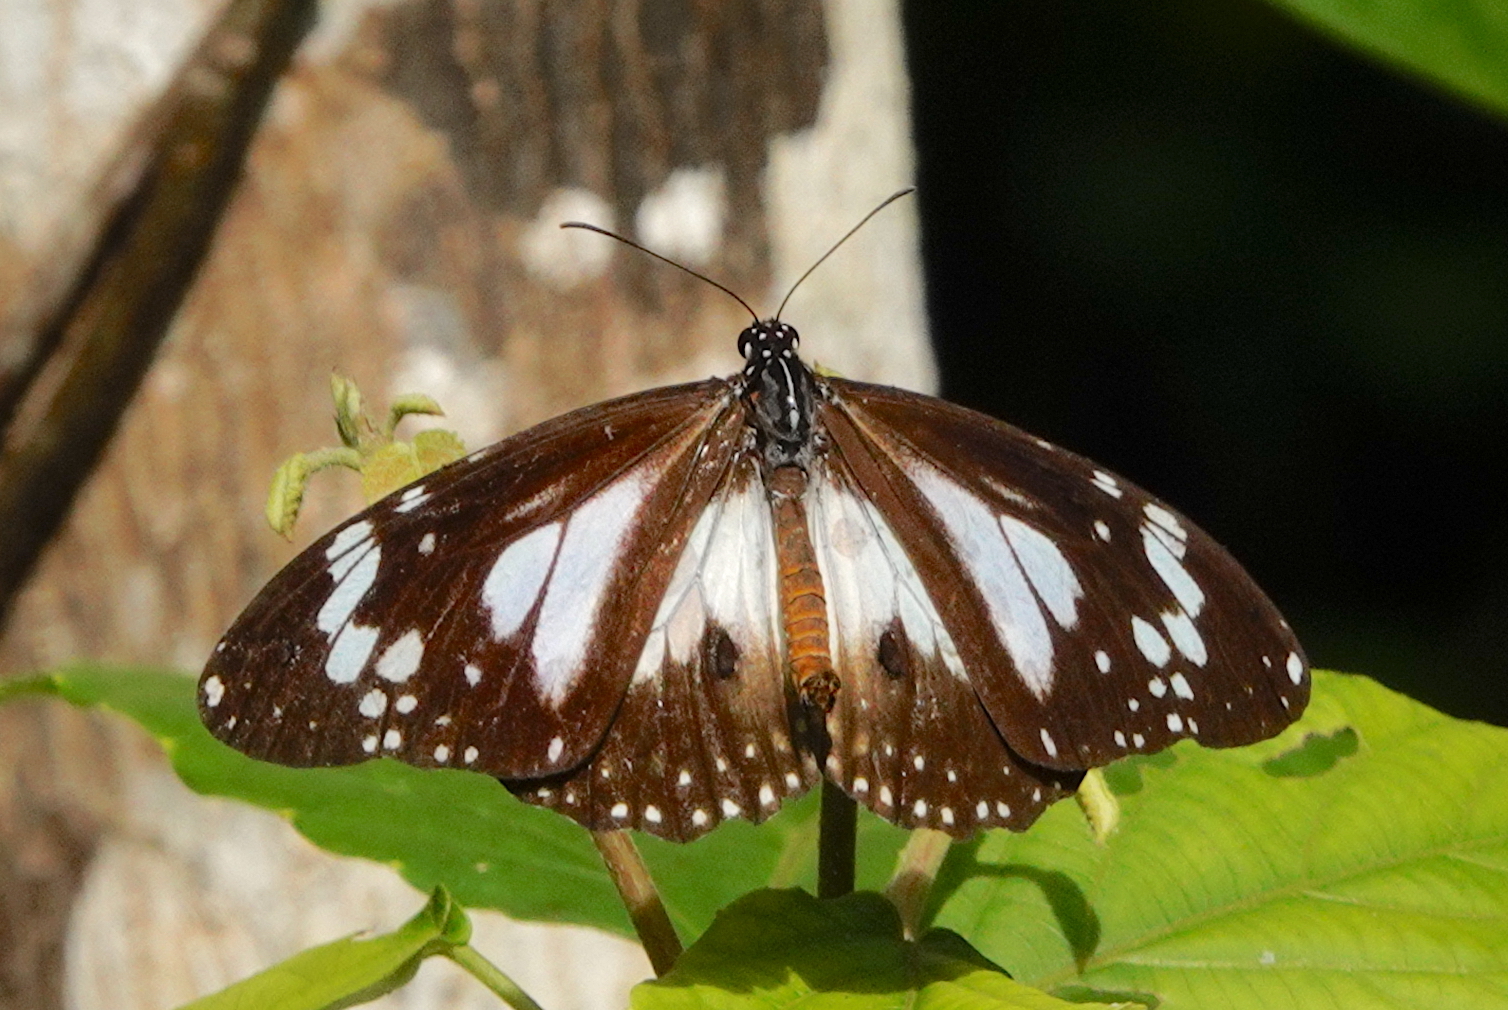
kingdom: Animalia
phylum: Arthropoda
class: Insecta
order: Lepidoptera
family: Nymphalidae
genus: Danaus
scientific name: Danaus affinis
